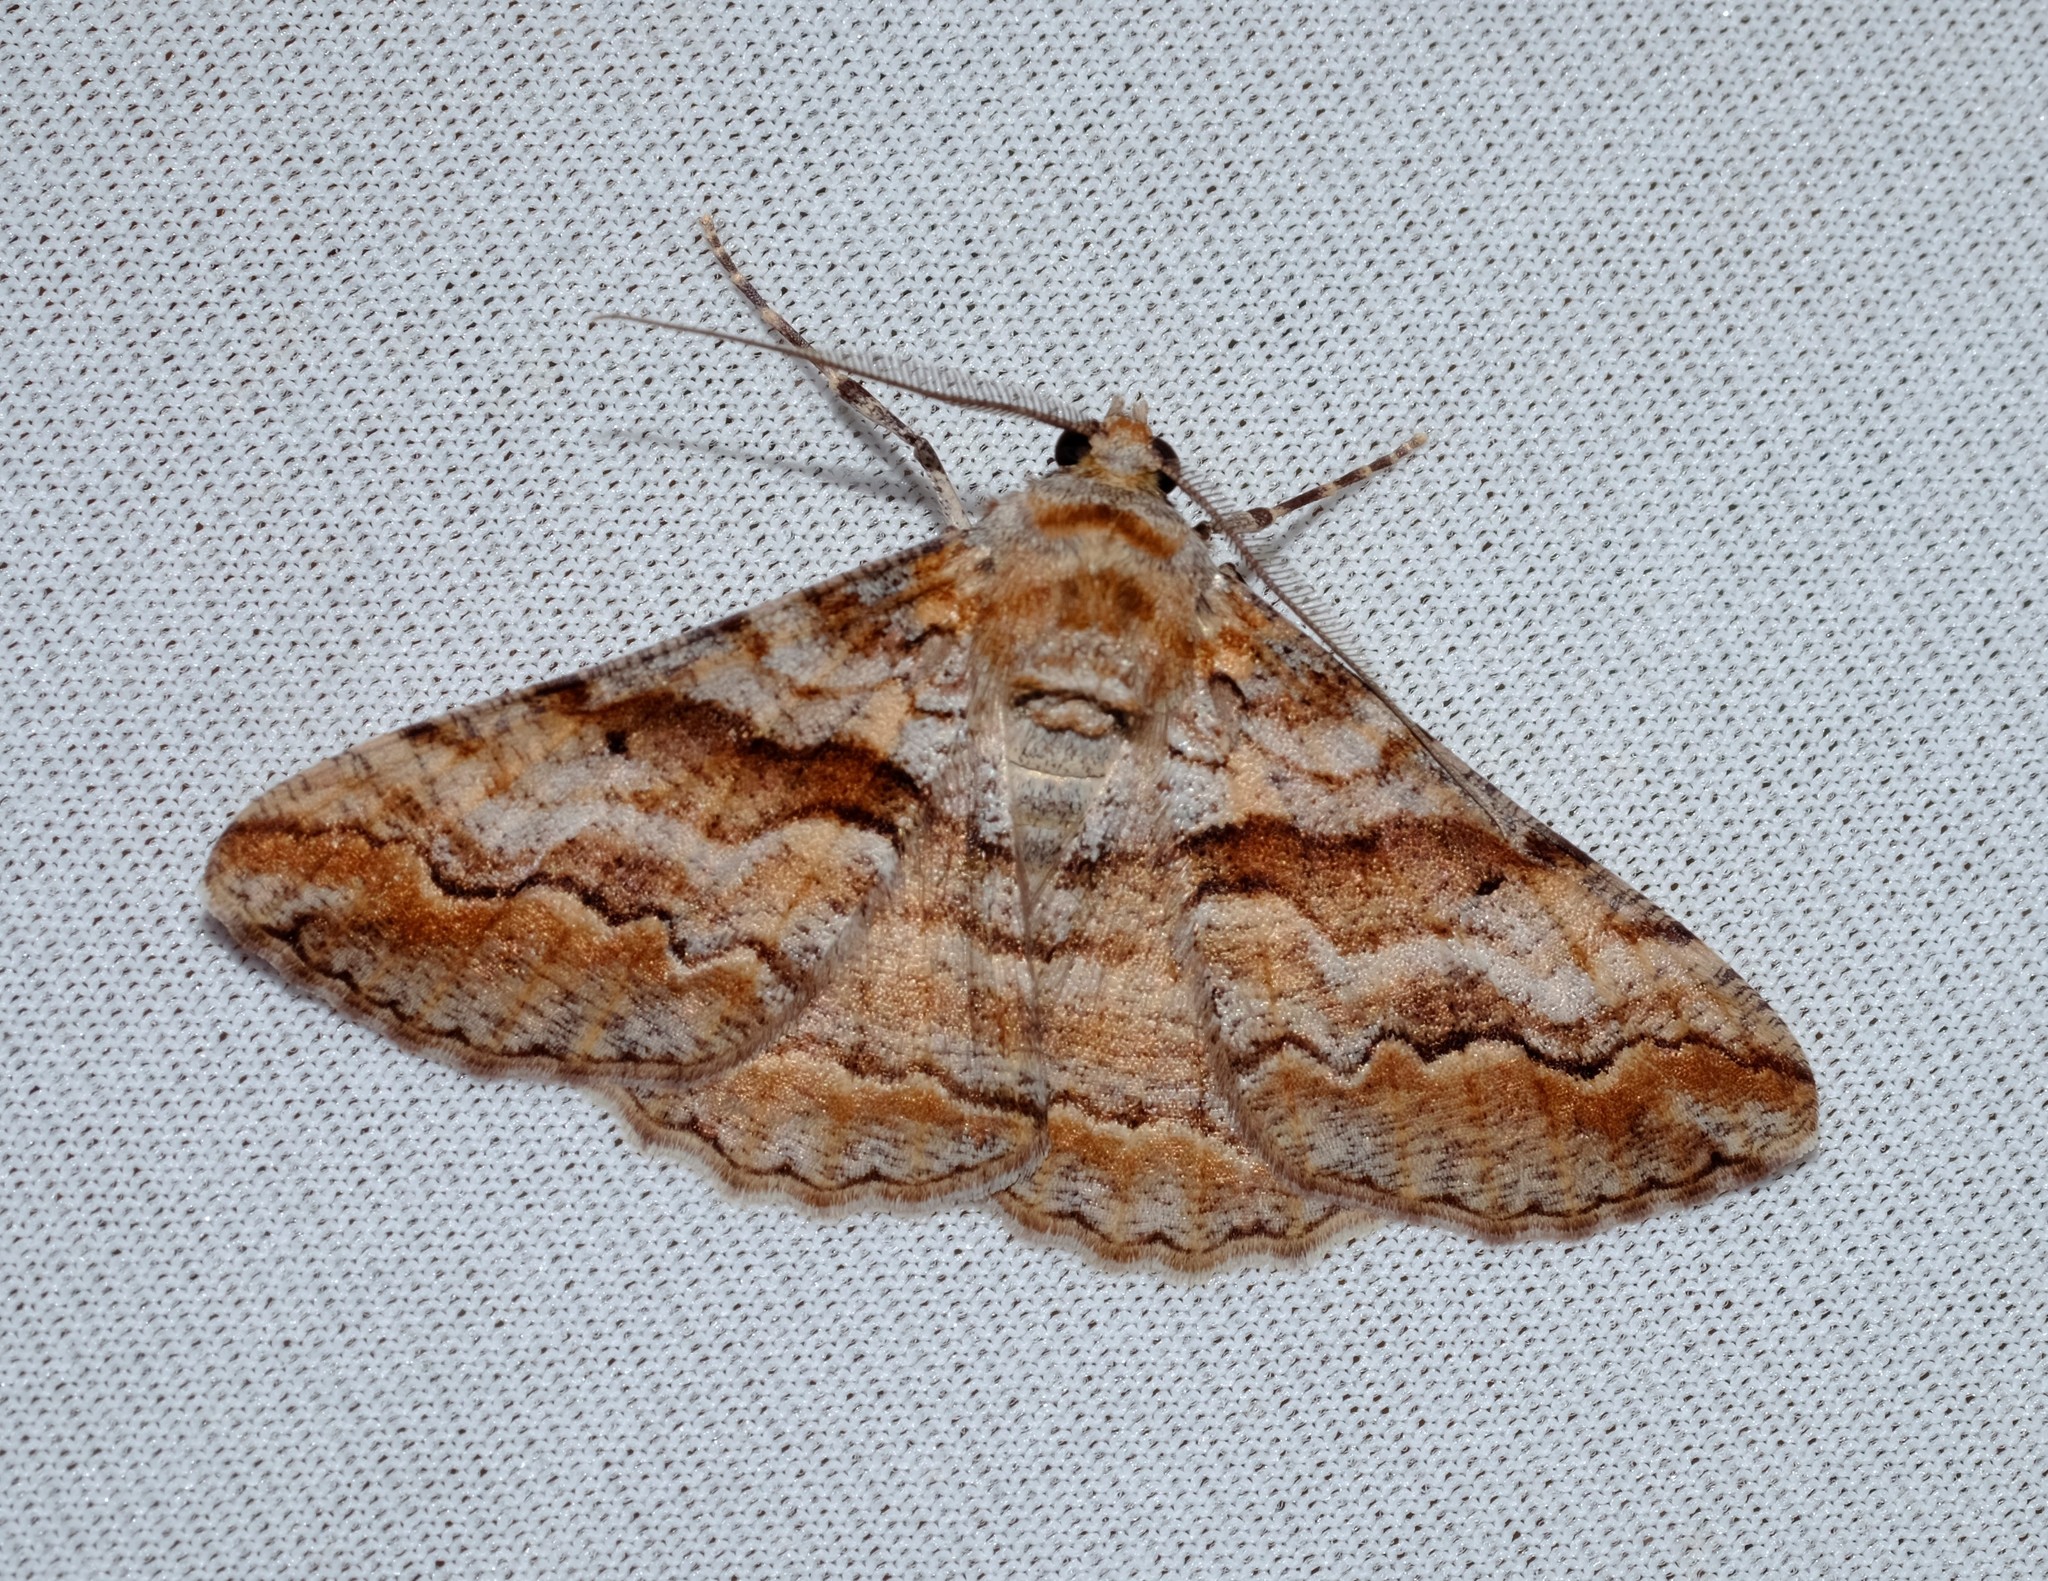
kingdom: Animalia
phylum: Arthropoda
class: Insecta
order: Lepidoptera
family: Geometridae
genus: Gastrinodes
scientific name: Gastrinodes bitaeniaria
